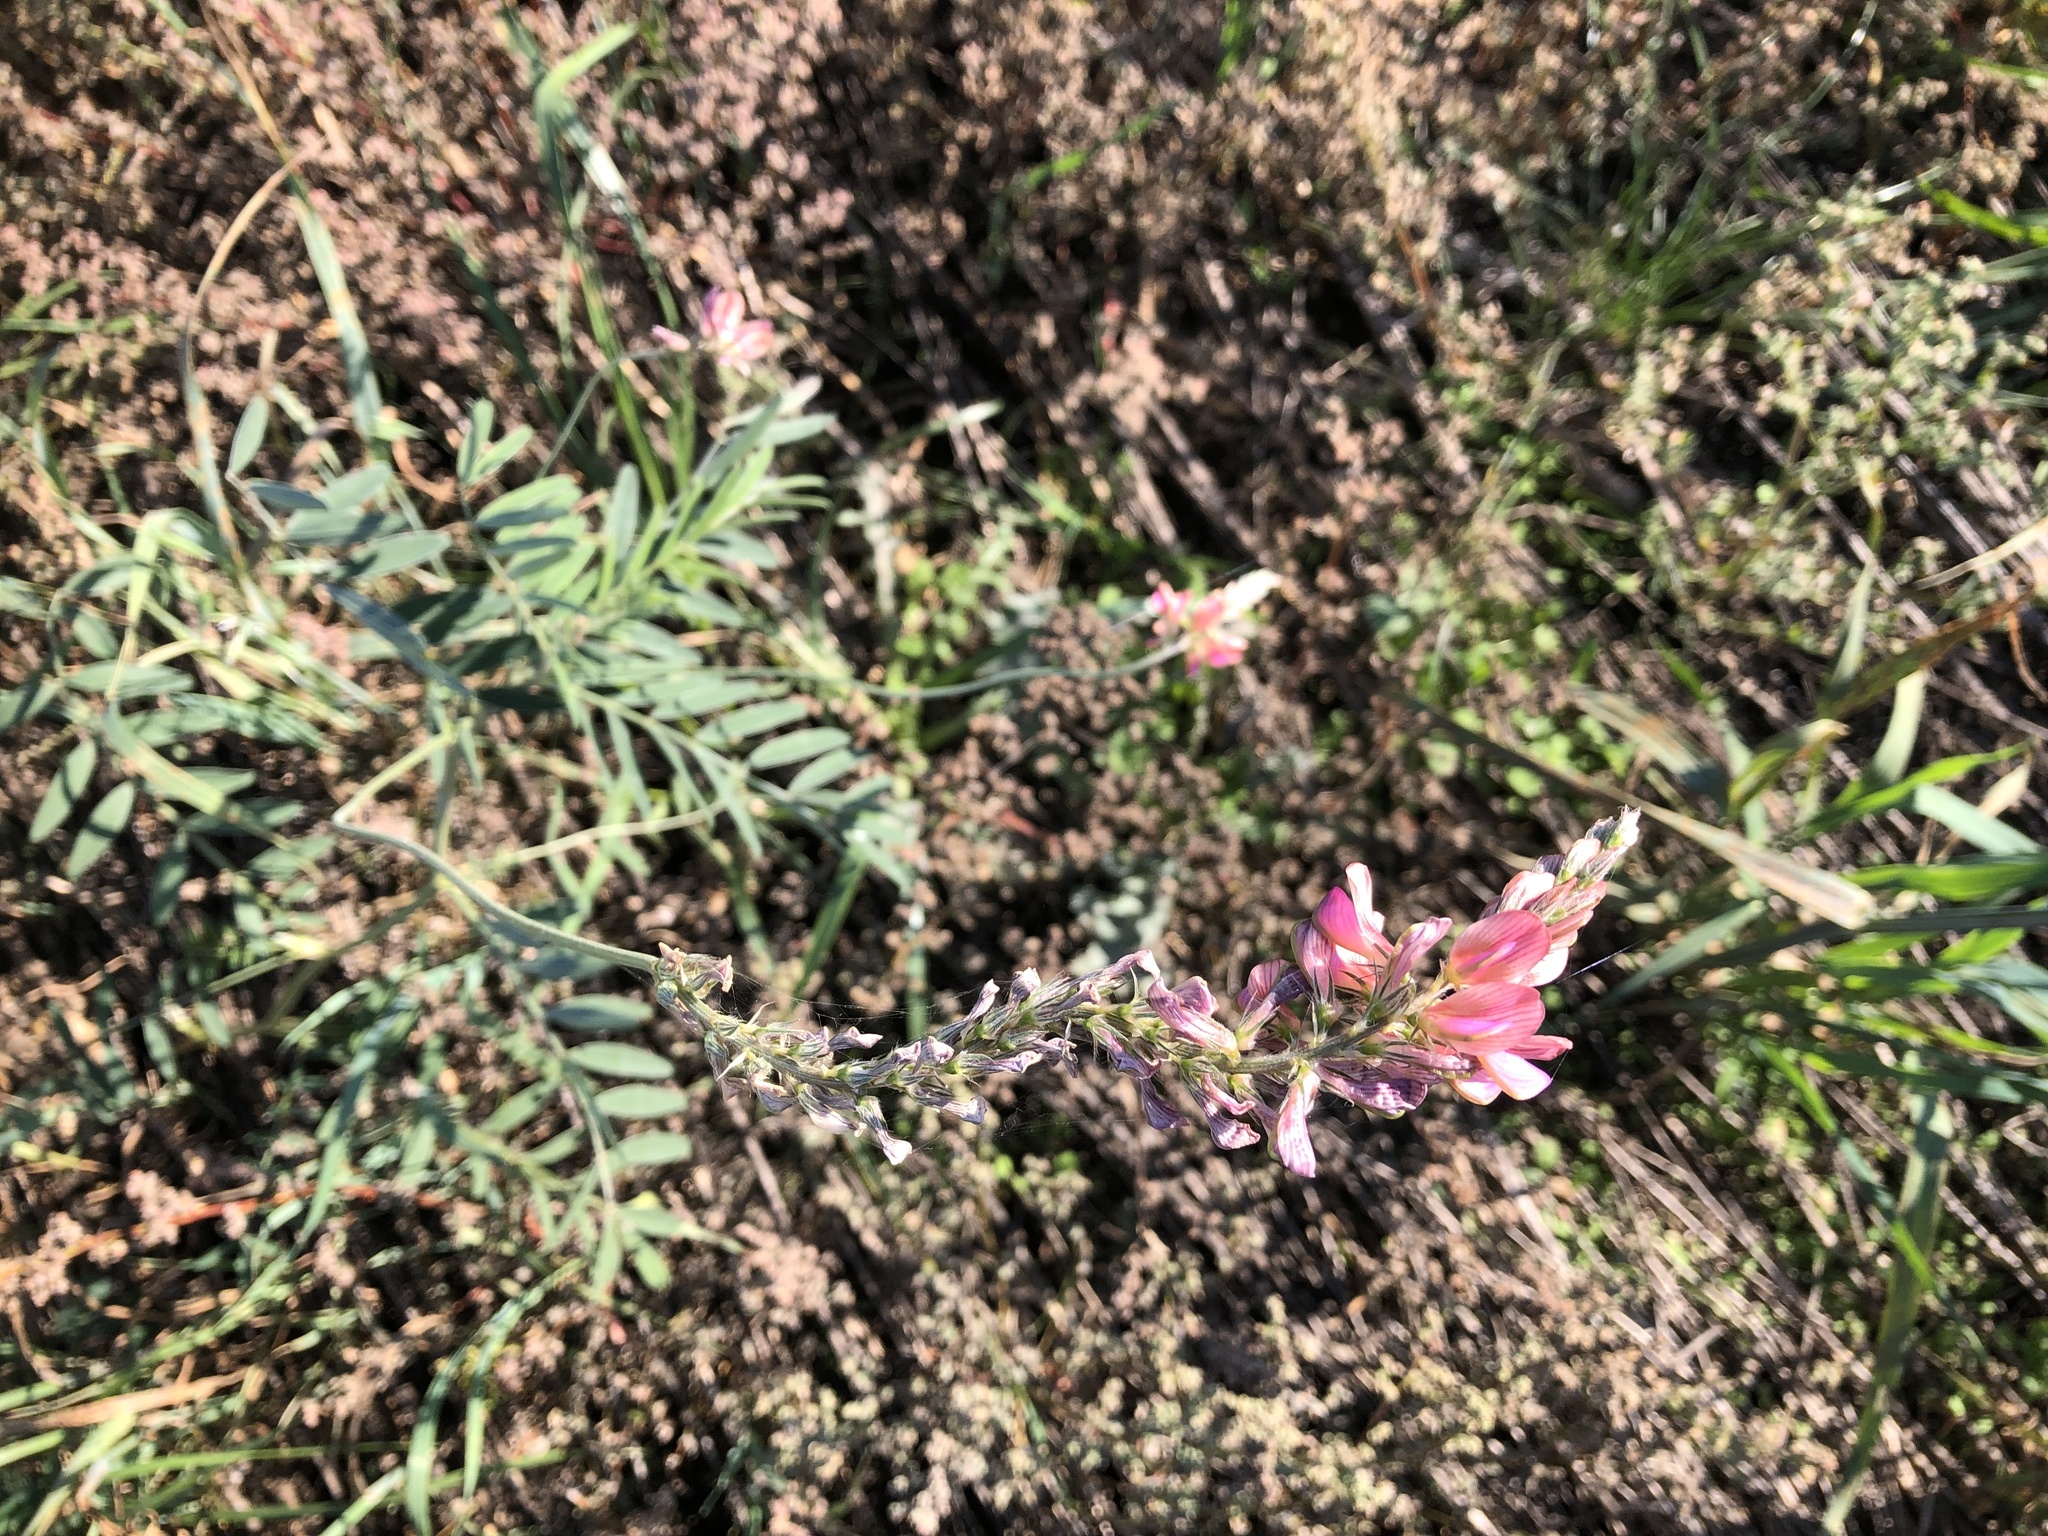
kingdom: Plantae
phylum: Tracheophyta
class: Magnoliopsida
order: Fabales
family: Fabaceae
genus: Onobrychis
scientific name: Onobrychis viciifolia
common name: Sainfoin
